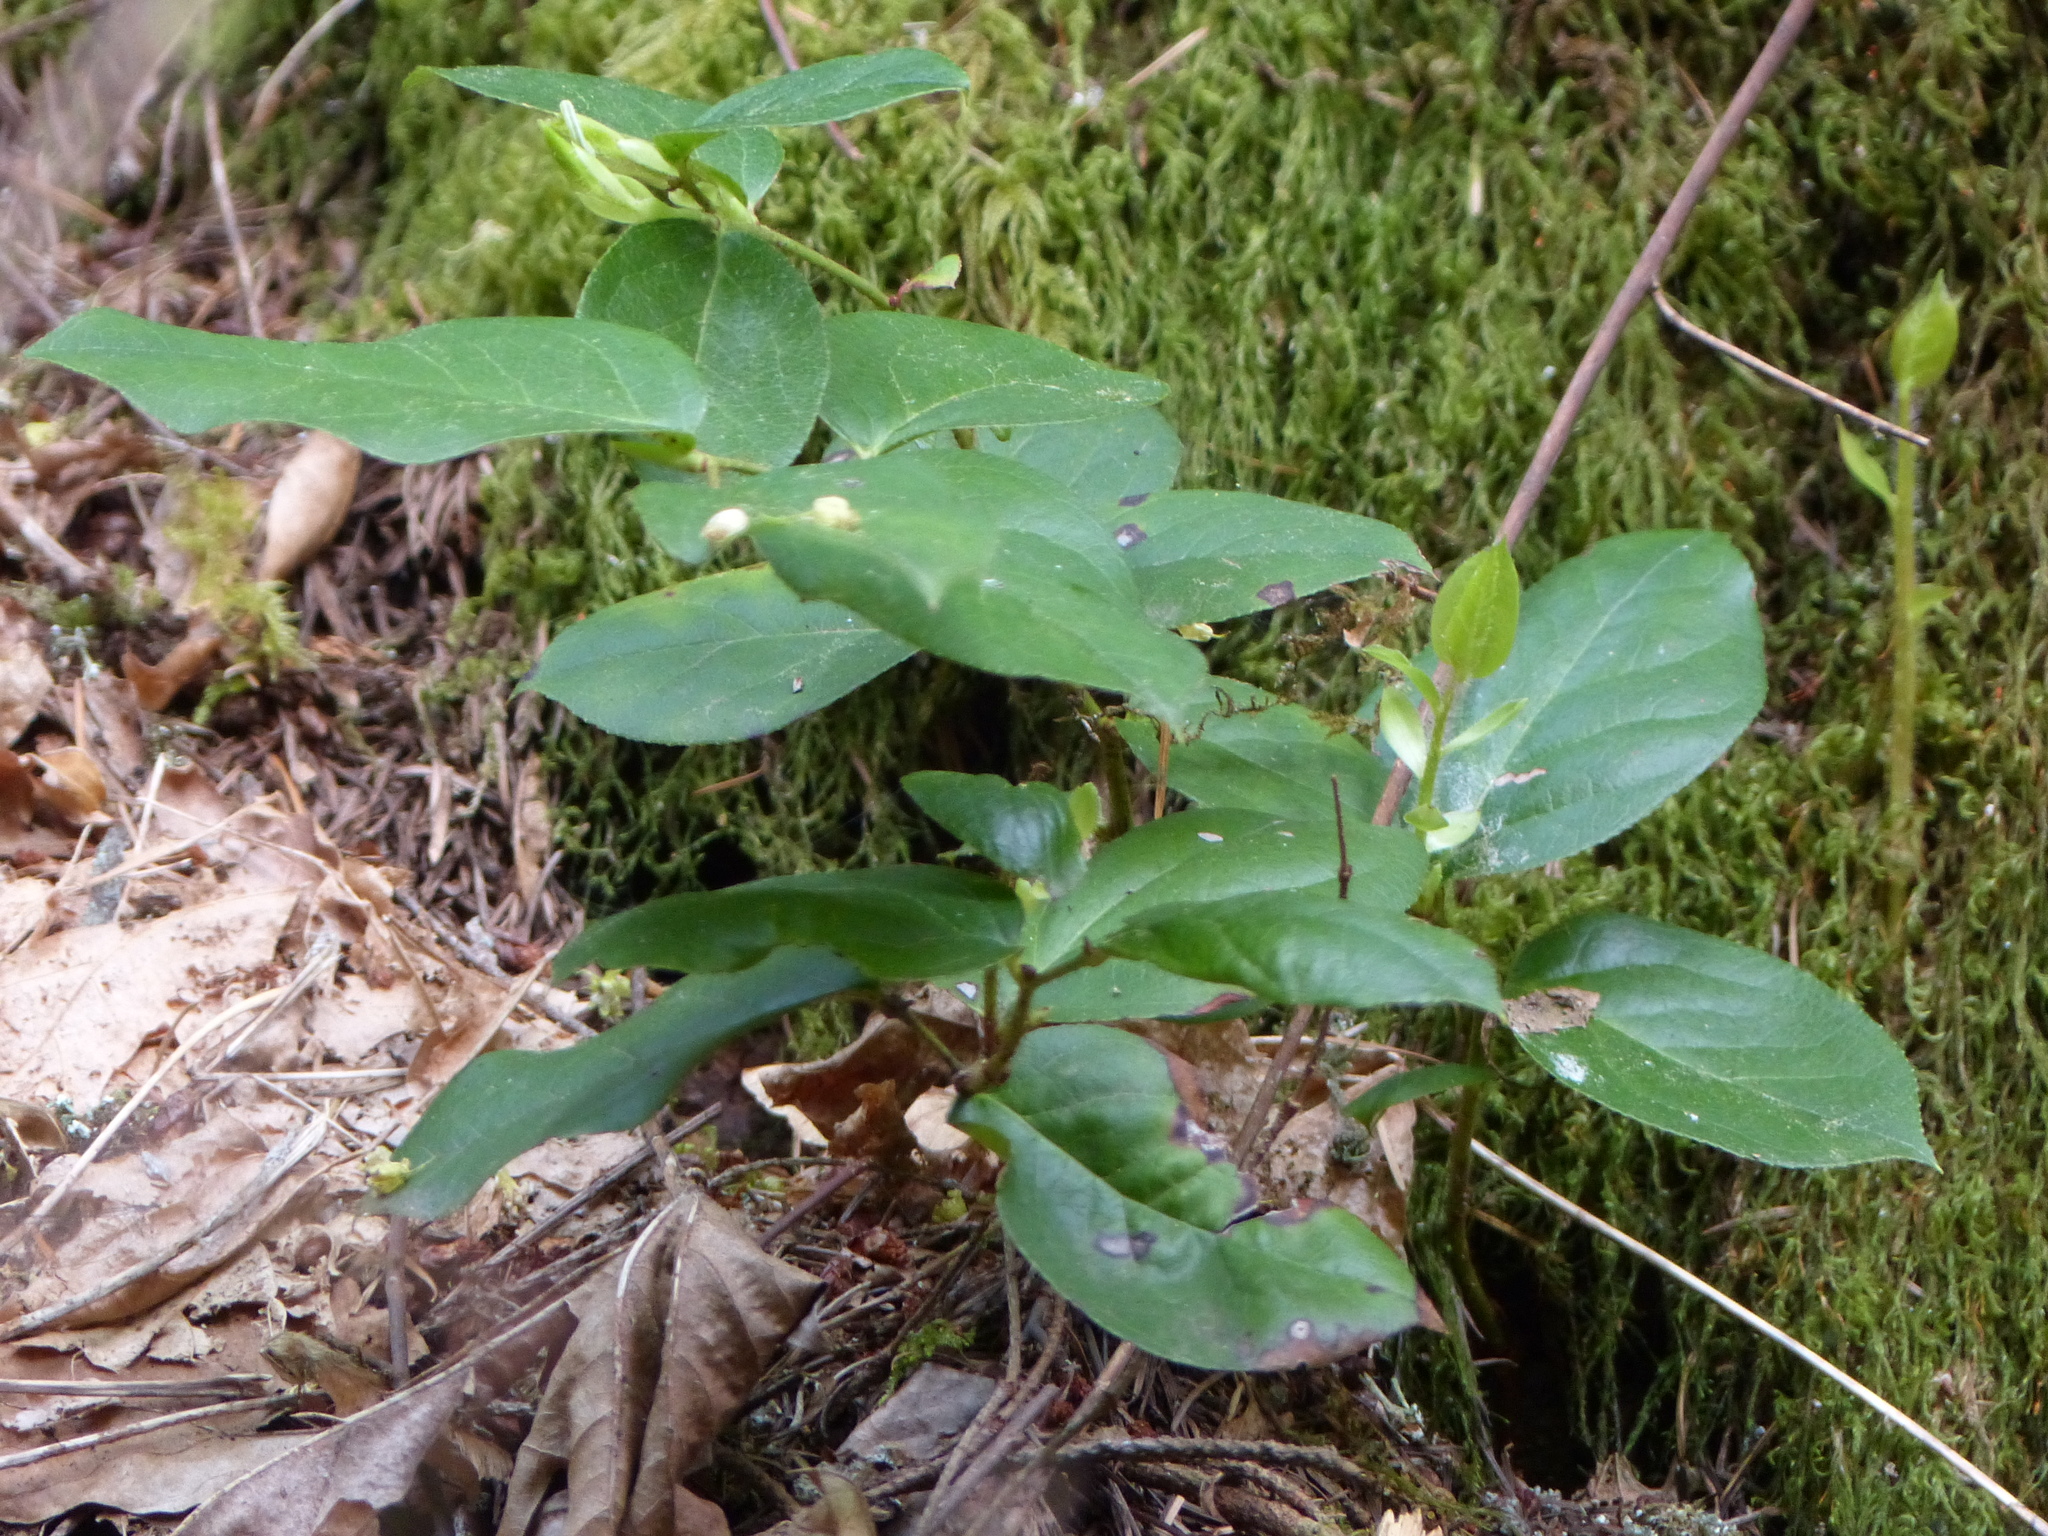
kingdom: Plantae
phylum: Tracheophyta
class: Magnoliopsida
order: Ericales
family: Ericaceae
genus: Gaultheria
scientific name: Gaultheria shallon
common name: Shallon
